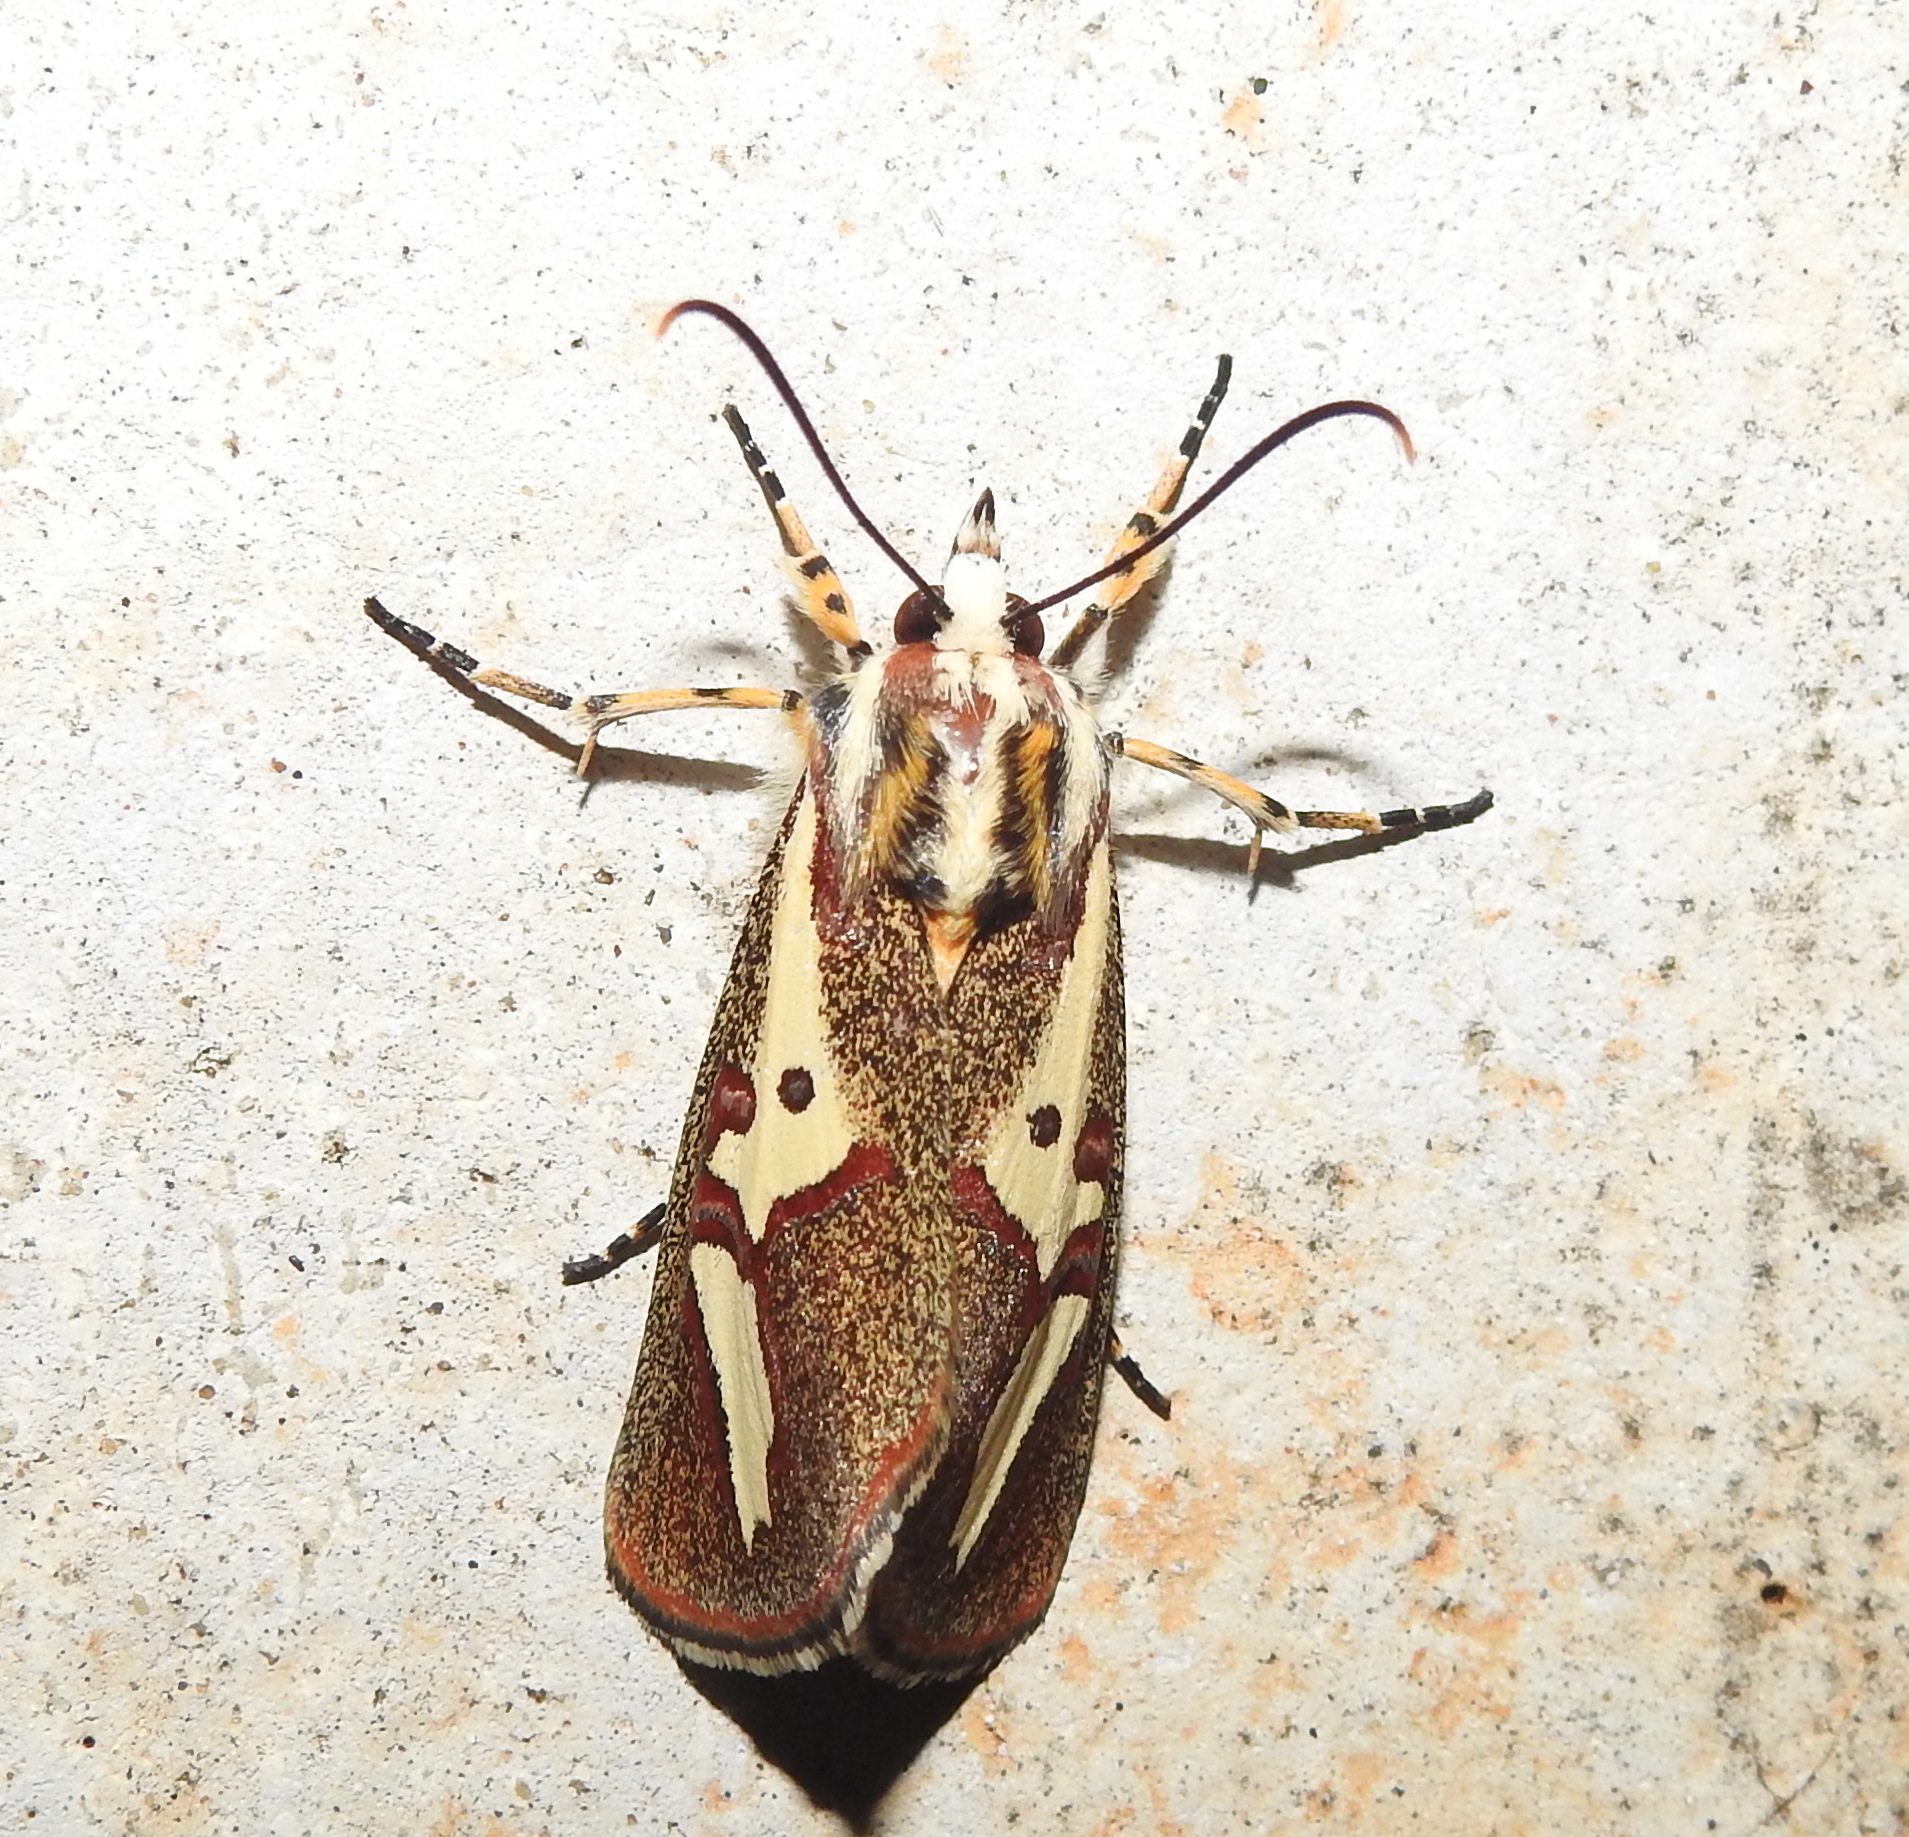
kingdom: Animalia
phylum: Arthropoda
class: Insecta
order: Lepidoptera
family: Noctuidae
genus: Aegocera
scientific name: Aegocera venulia
